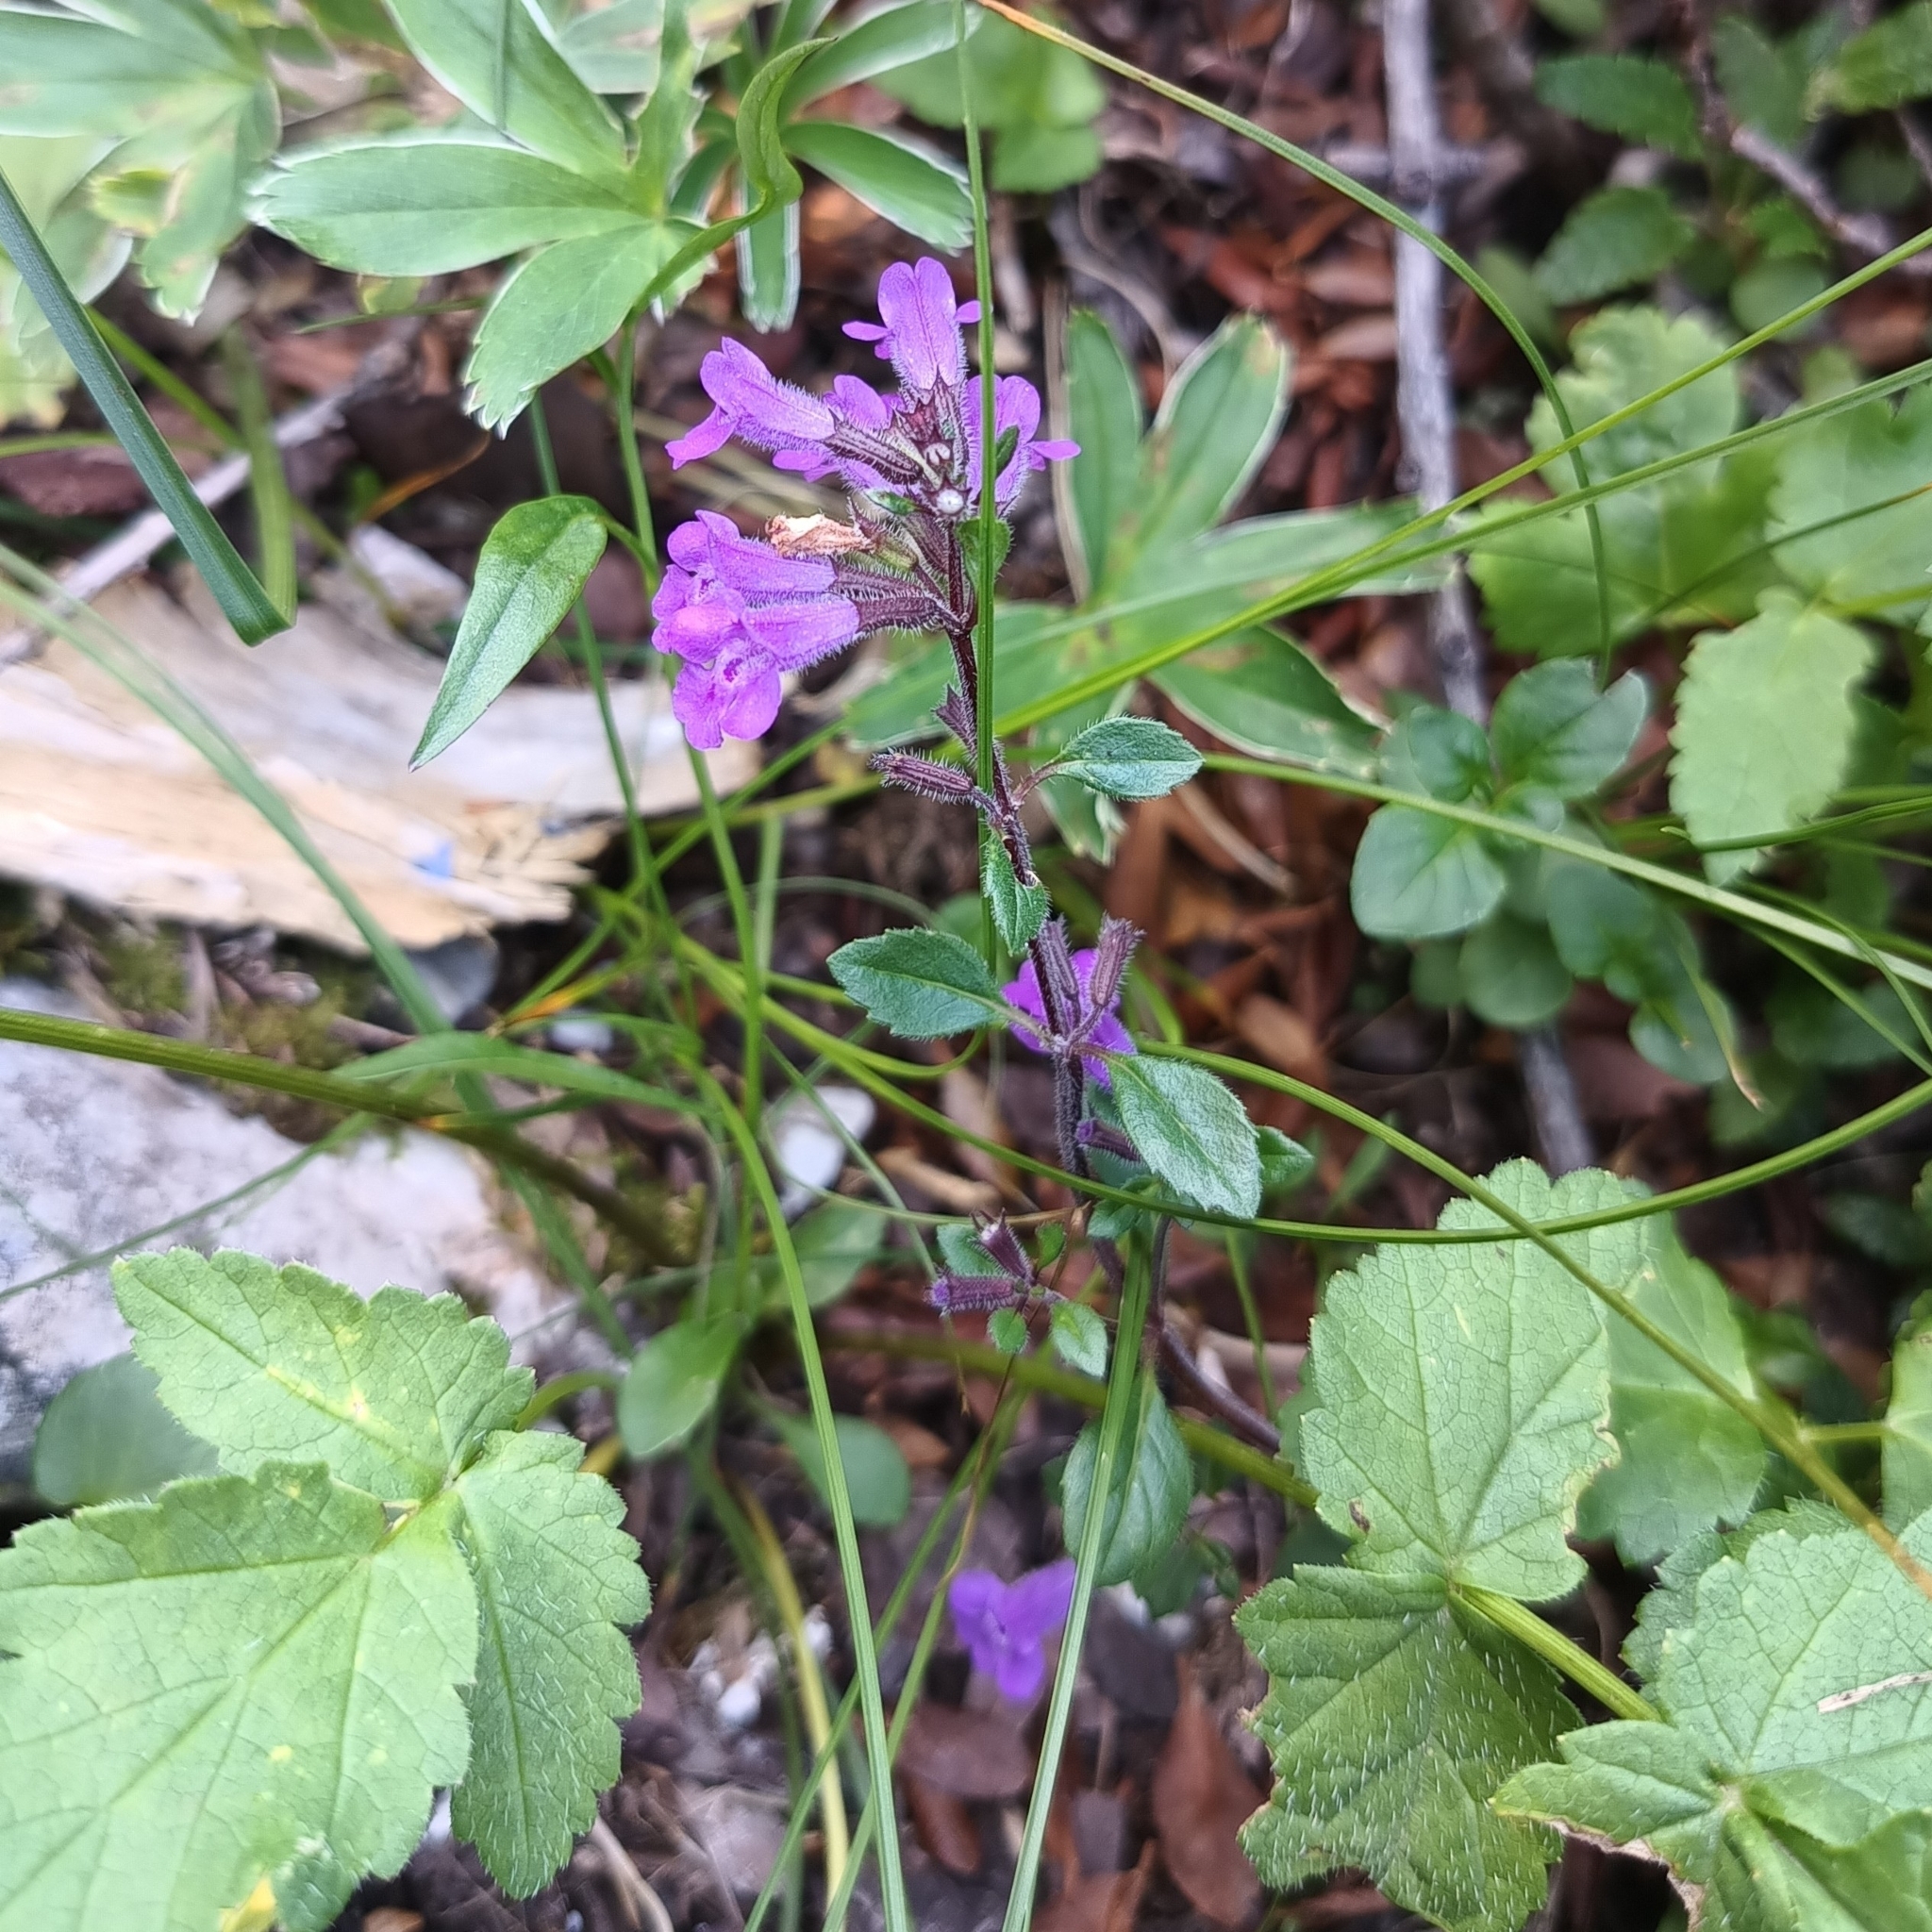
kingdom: Plantae
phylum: Tracheophyta
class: Magnoliopsida
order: Lamiales
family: Lamiaceae
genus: Clinopodium
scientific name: Clinopodium alpinum
